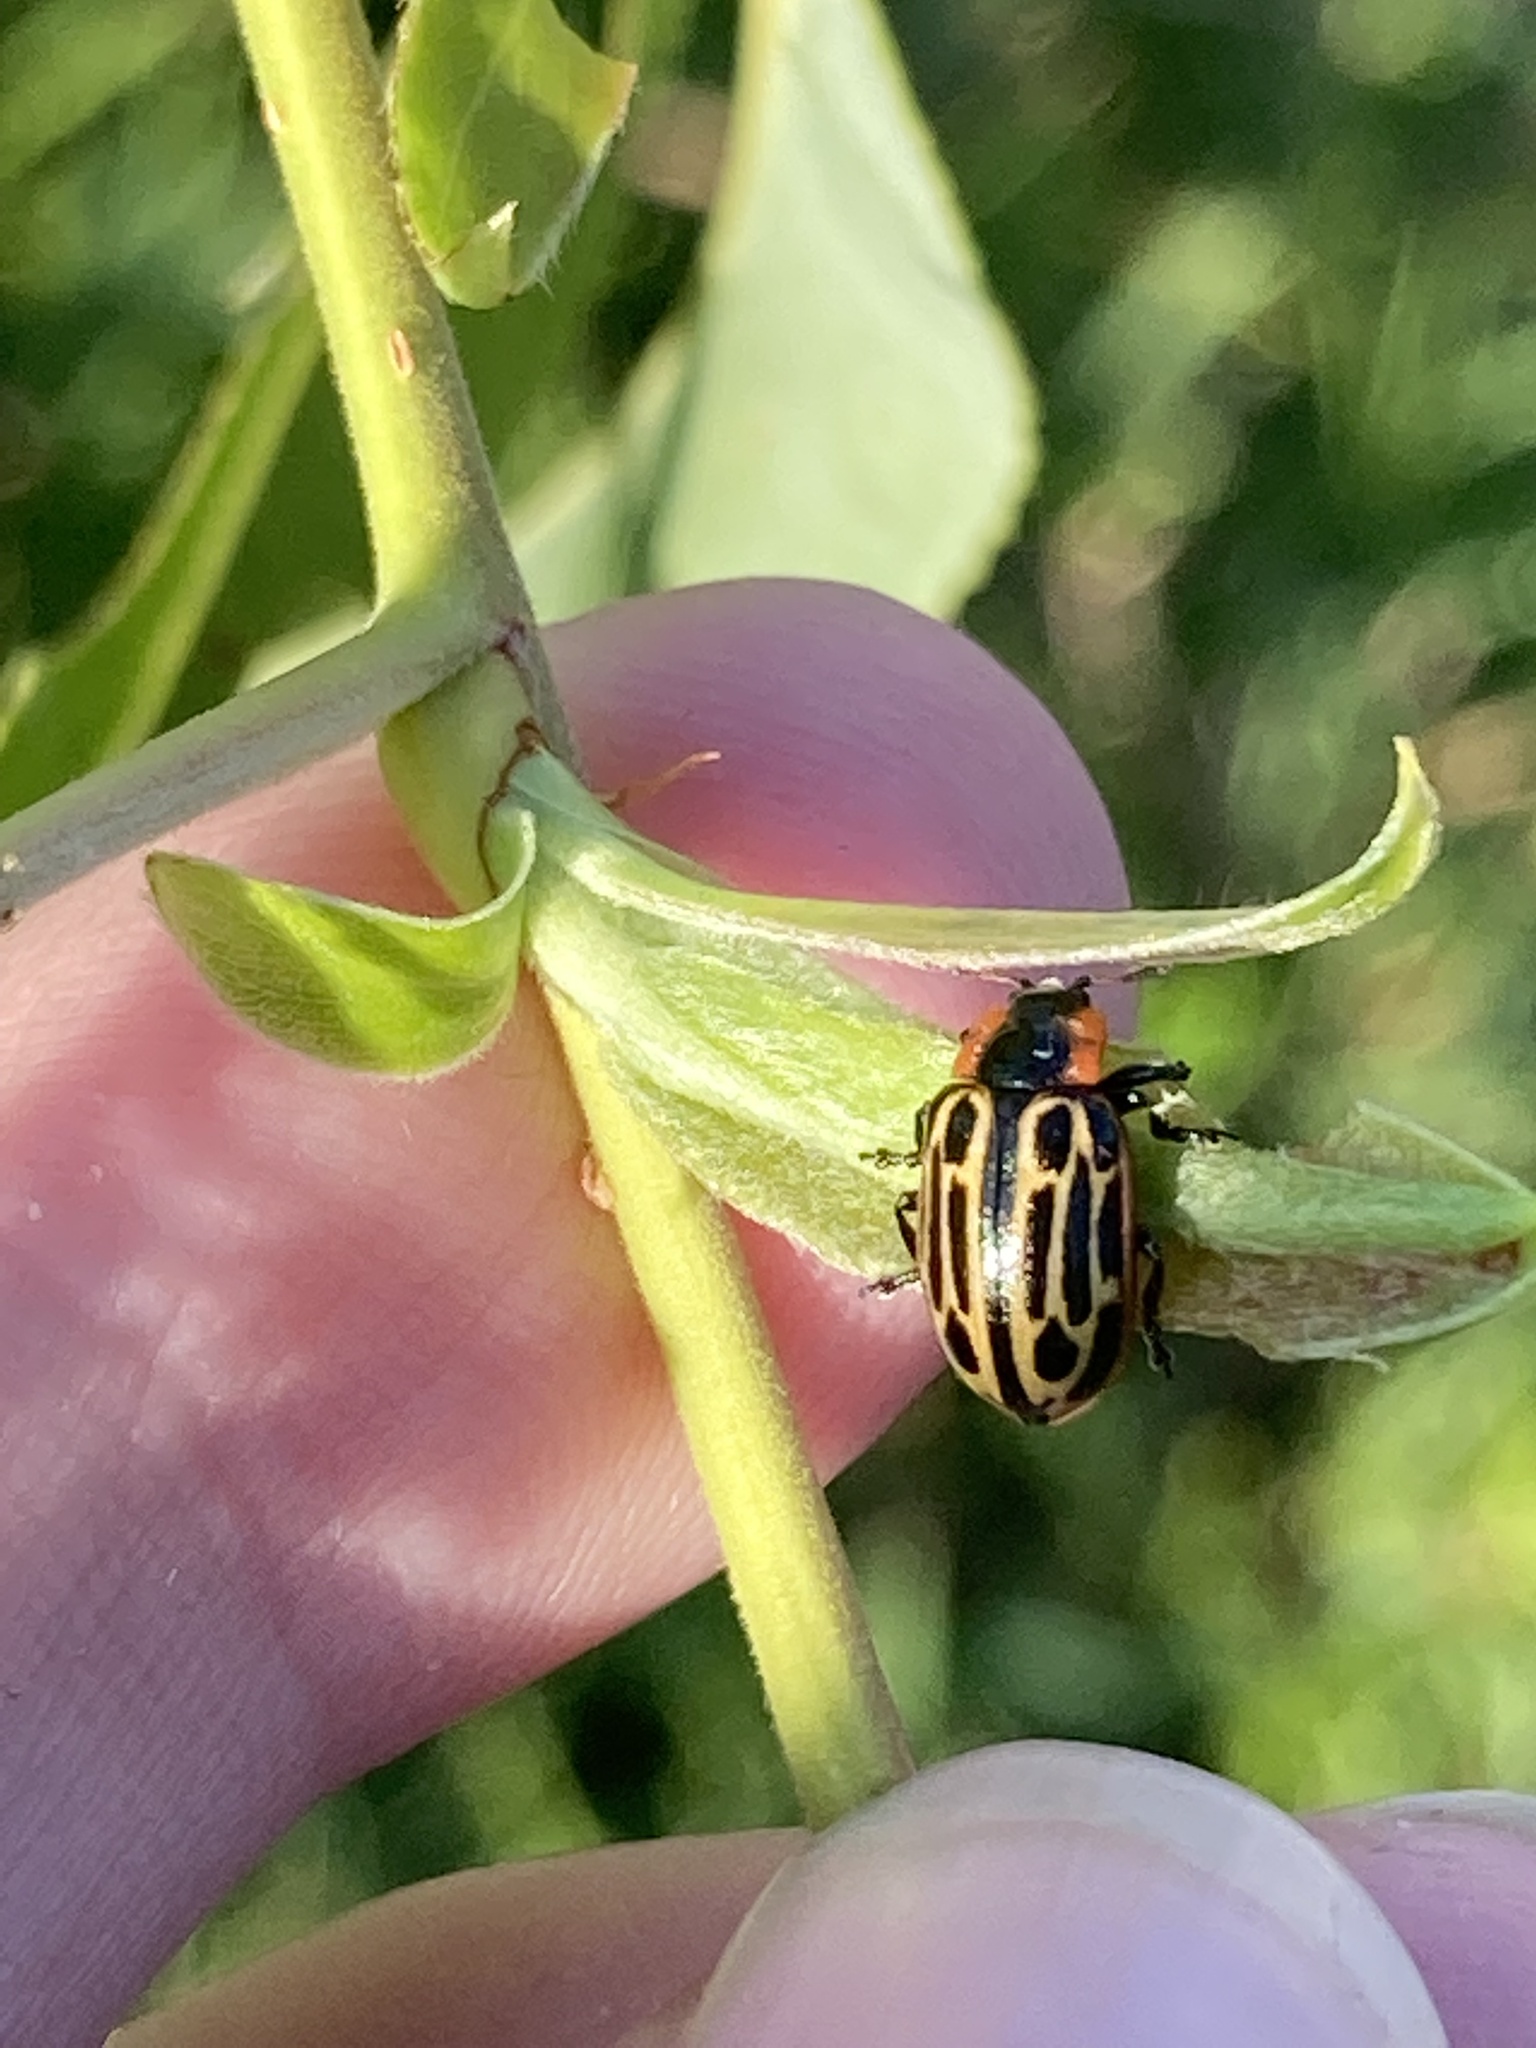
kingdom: Animalia
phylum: Arthropoda
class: Insecta
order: Coleoptera
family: Chrysomelidae
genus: Aethiopocassis
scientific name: Aethiopocassis scripta
